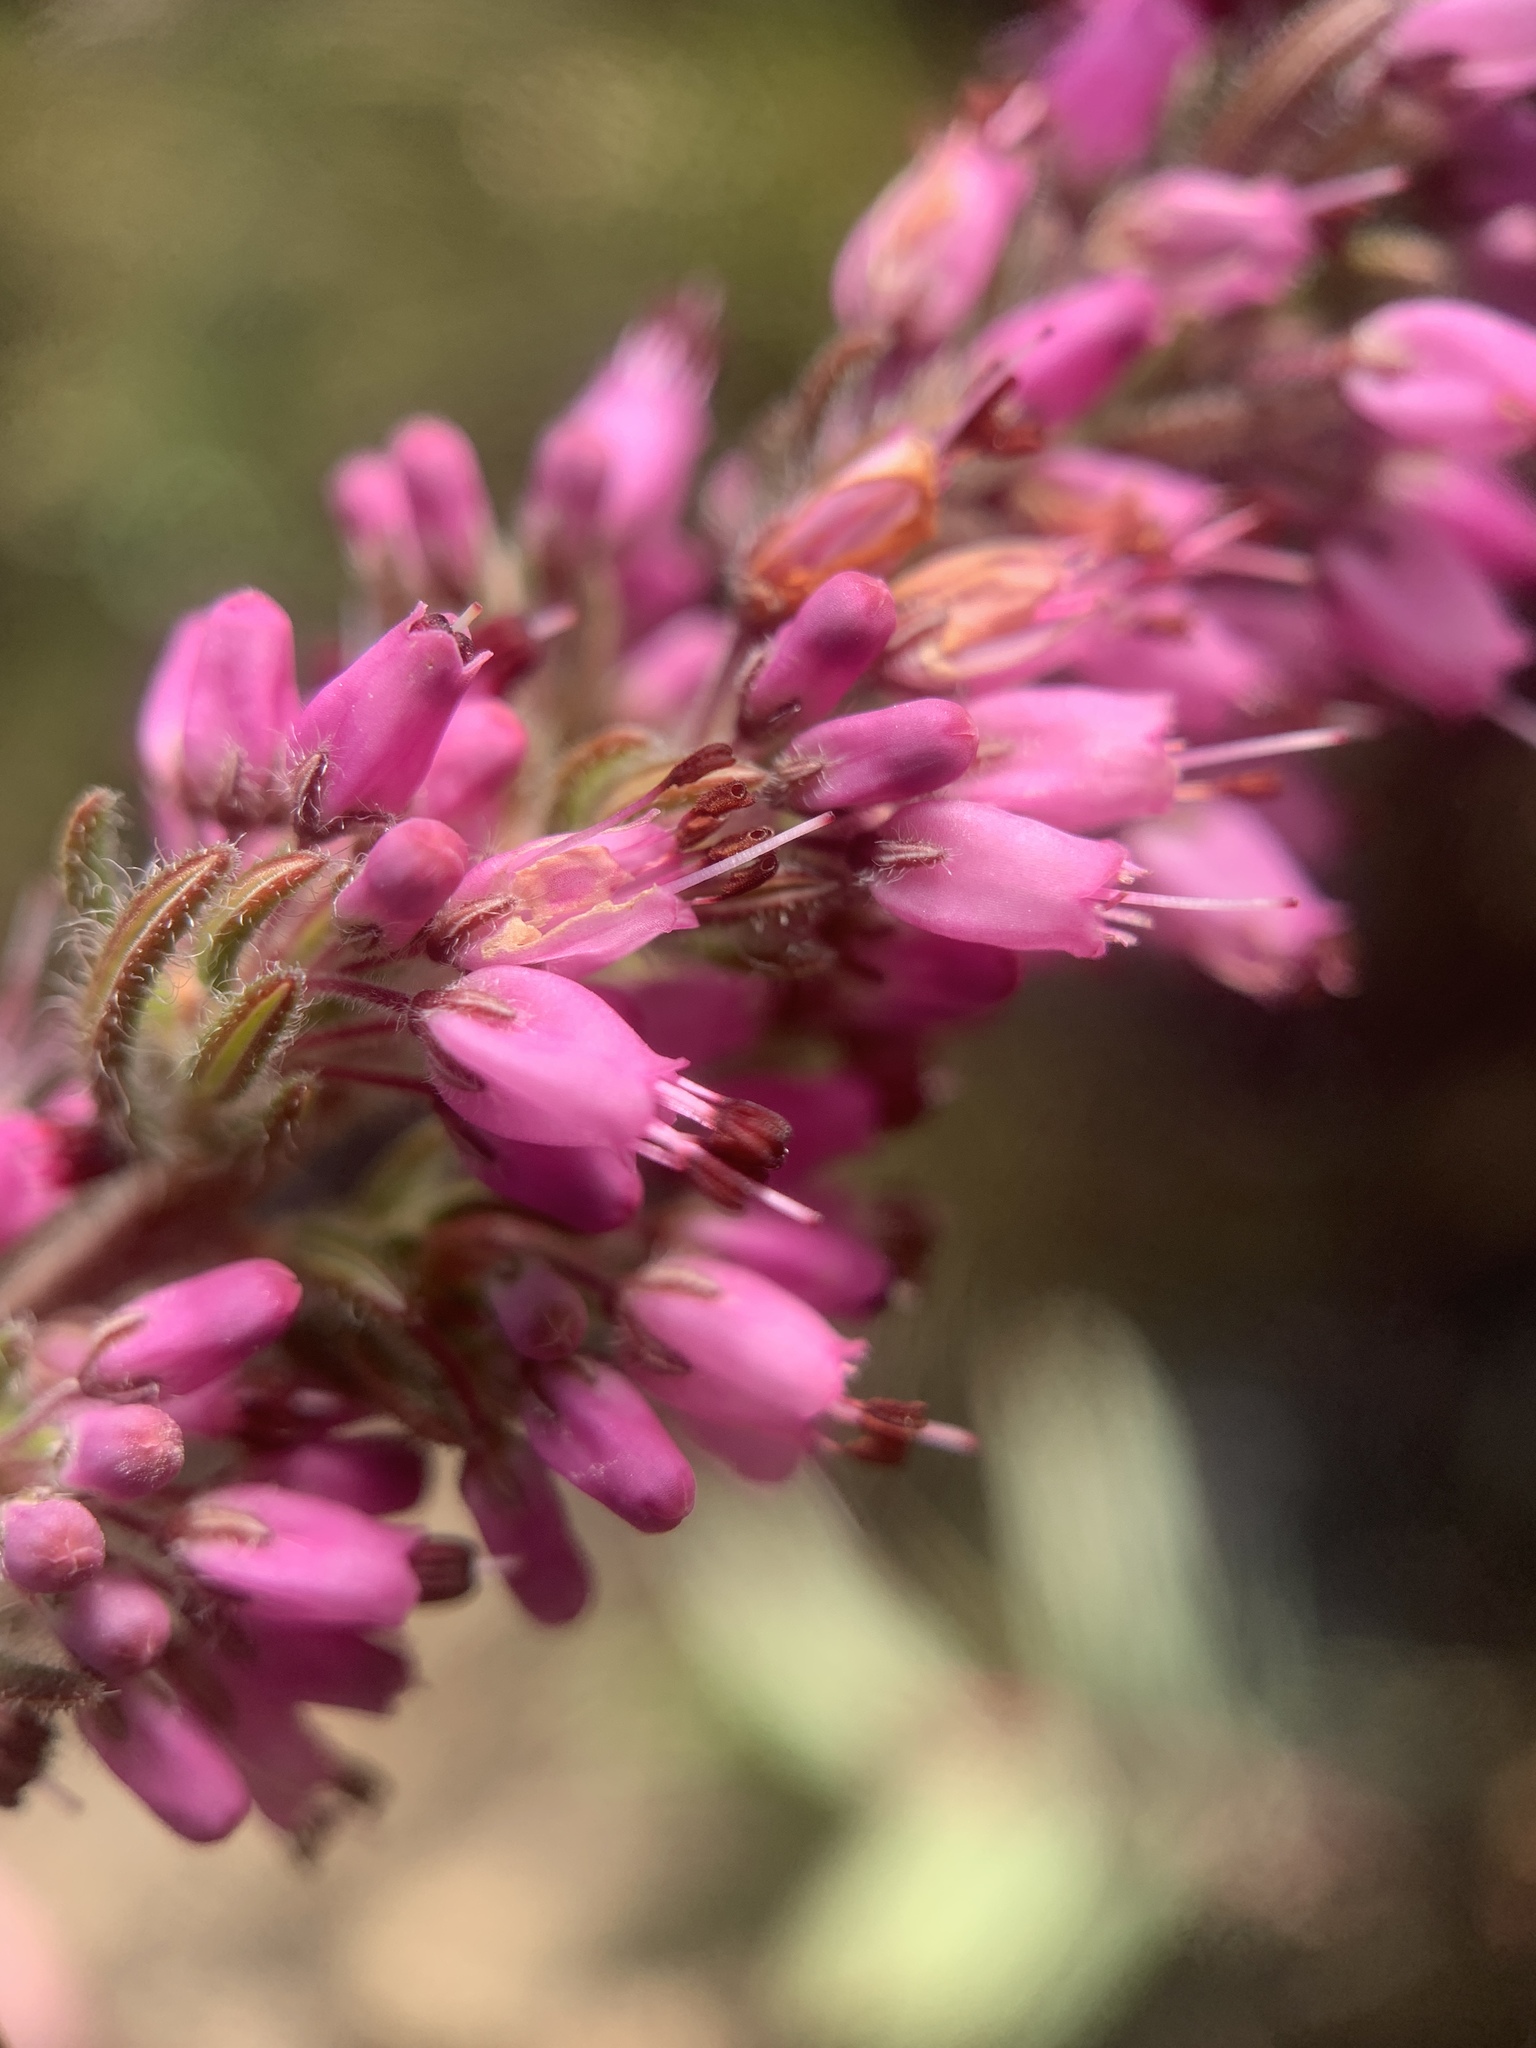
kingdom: Plantae
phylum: Tracheophyta
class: Magnoliopsida
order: Ericales
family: Ericaceae
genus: Erica
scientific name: Erica nudiflora
